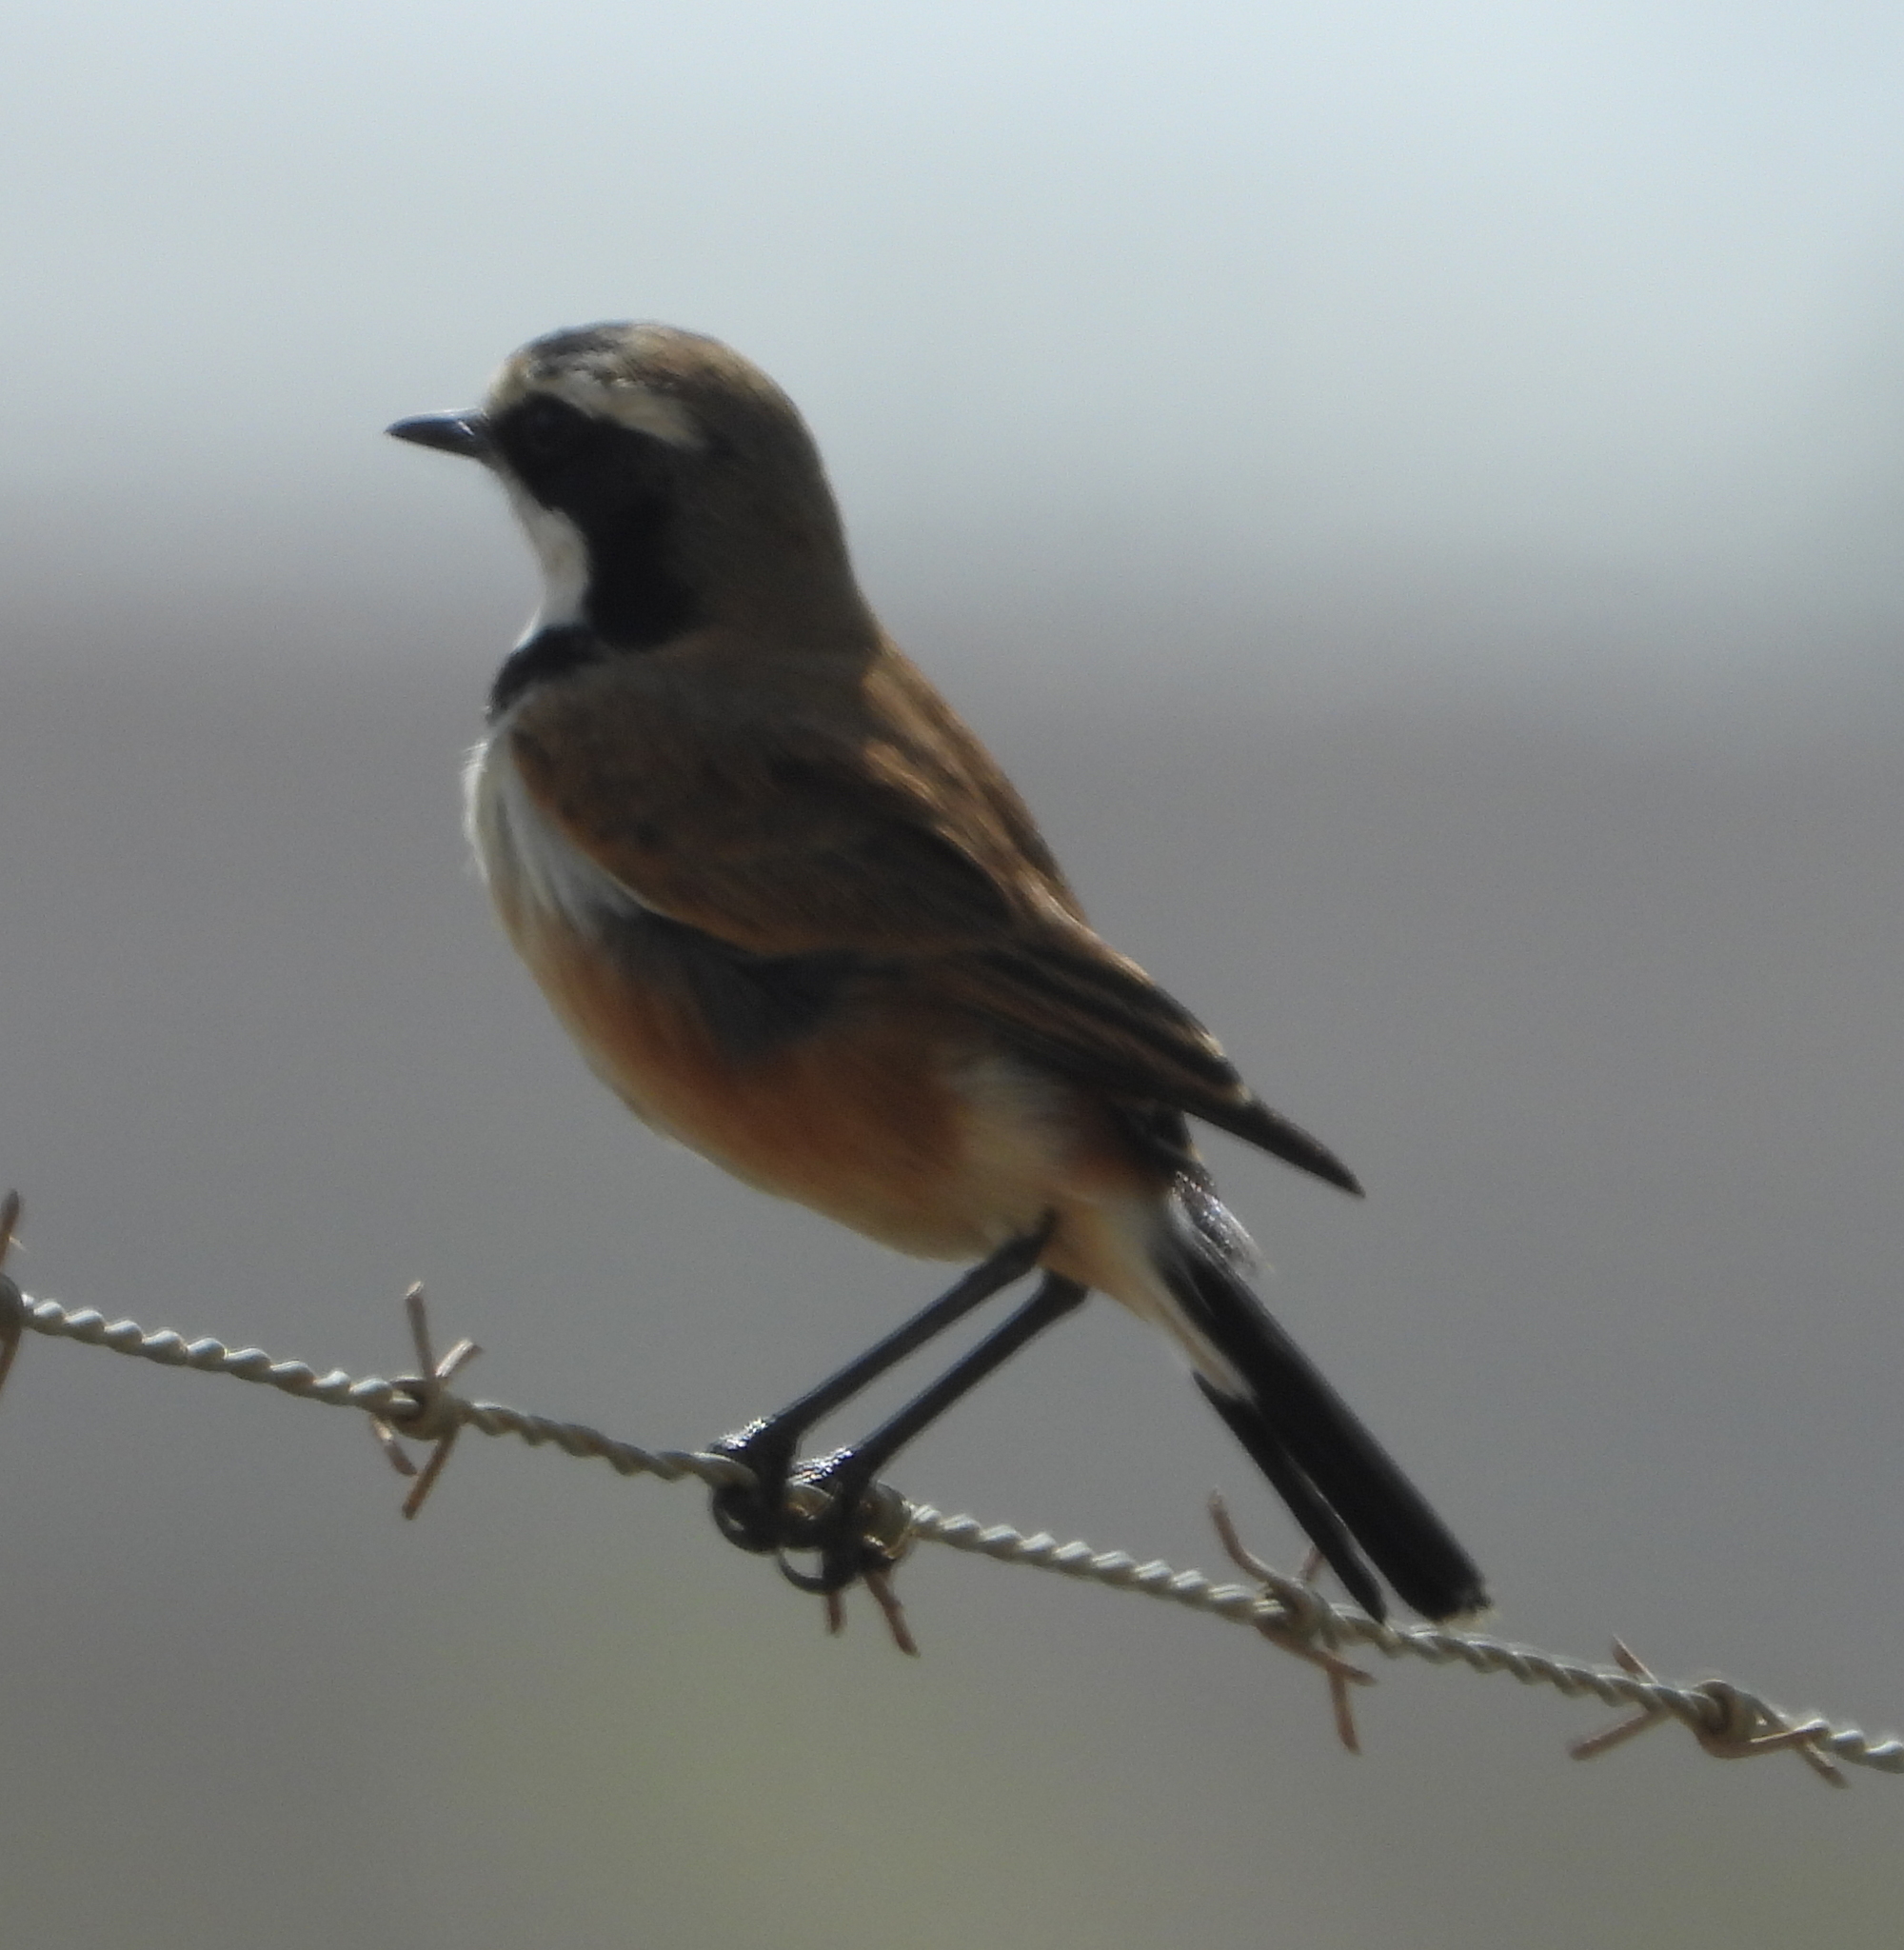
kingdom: Animalia
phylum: Chordata
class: Aves
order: Passeriformes
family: Muscicapidae
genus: Oenanthe
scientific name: Oenanthe pileata
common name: Capped wheatear
